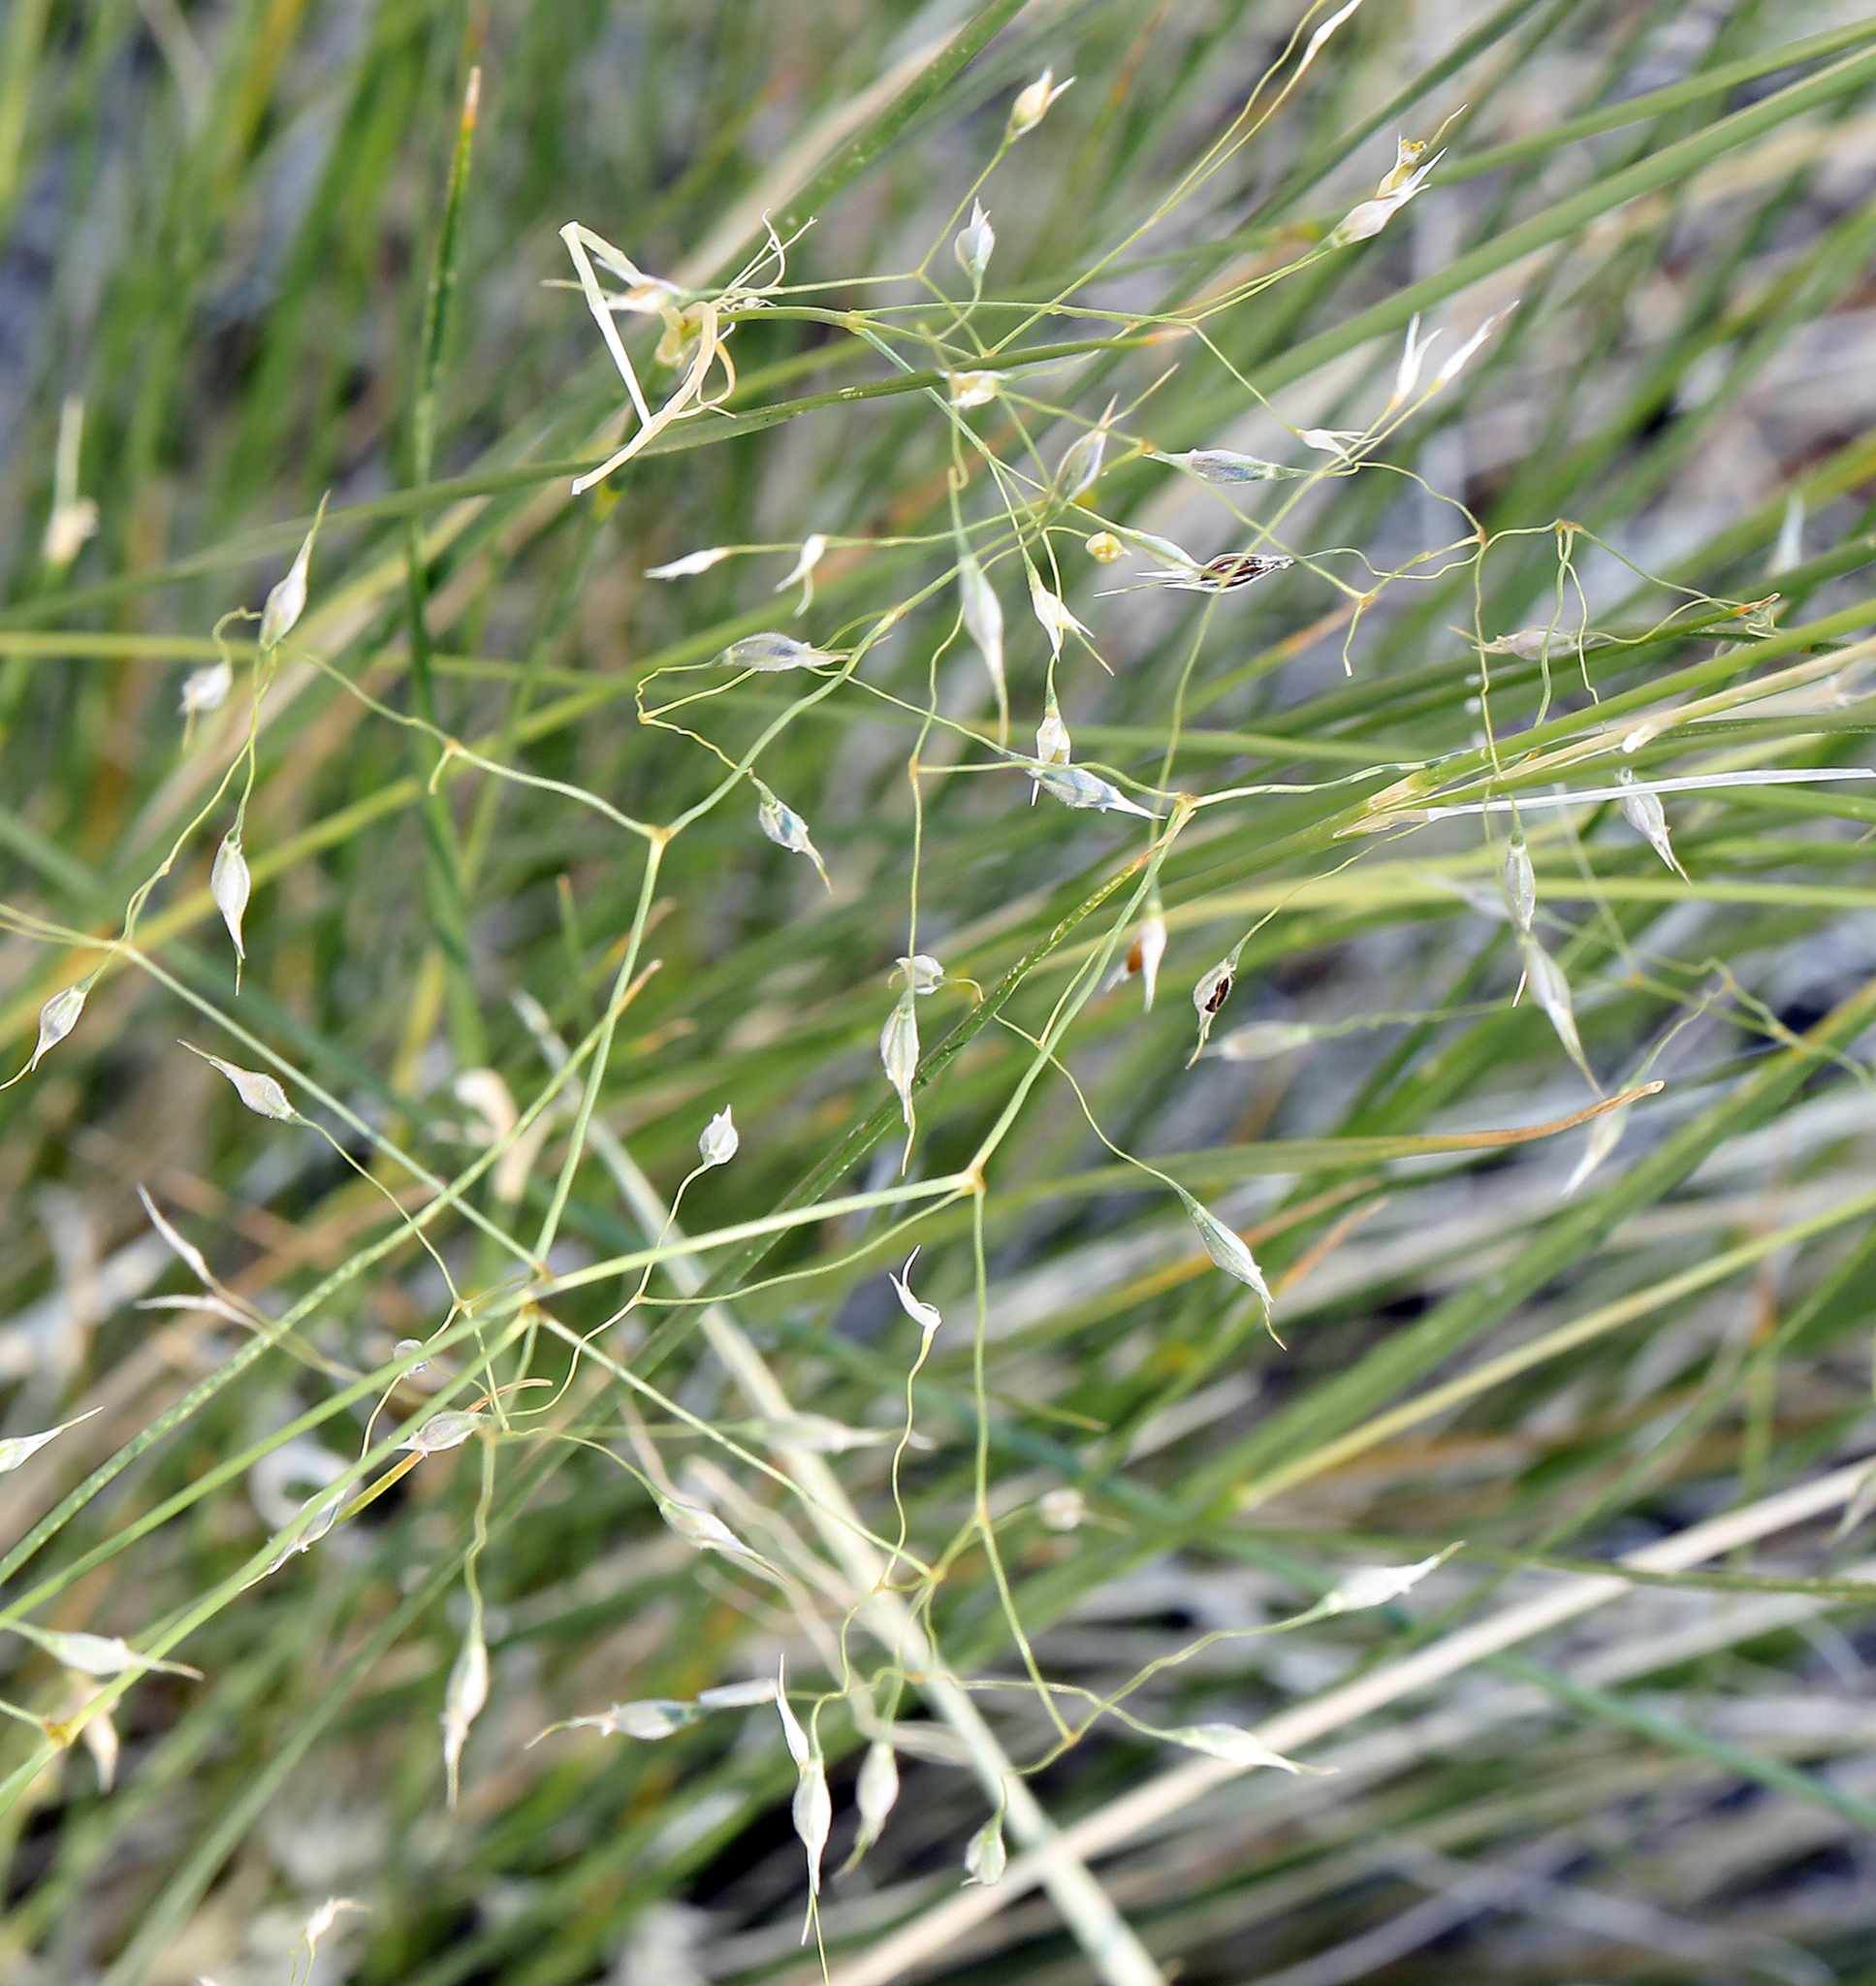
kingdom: Plantae
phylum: Tracheophyta
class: Liliopsida
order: Poales
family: Poaceae
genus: Eriocoma
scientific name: Eriocoma hymenoides
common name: Indian mountain ricegrass
